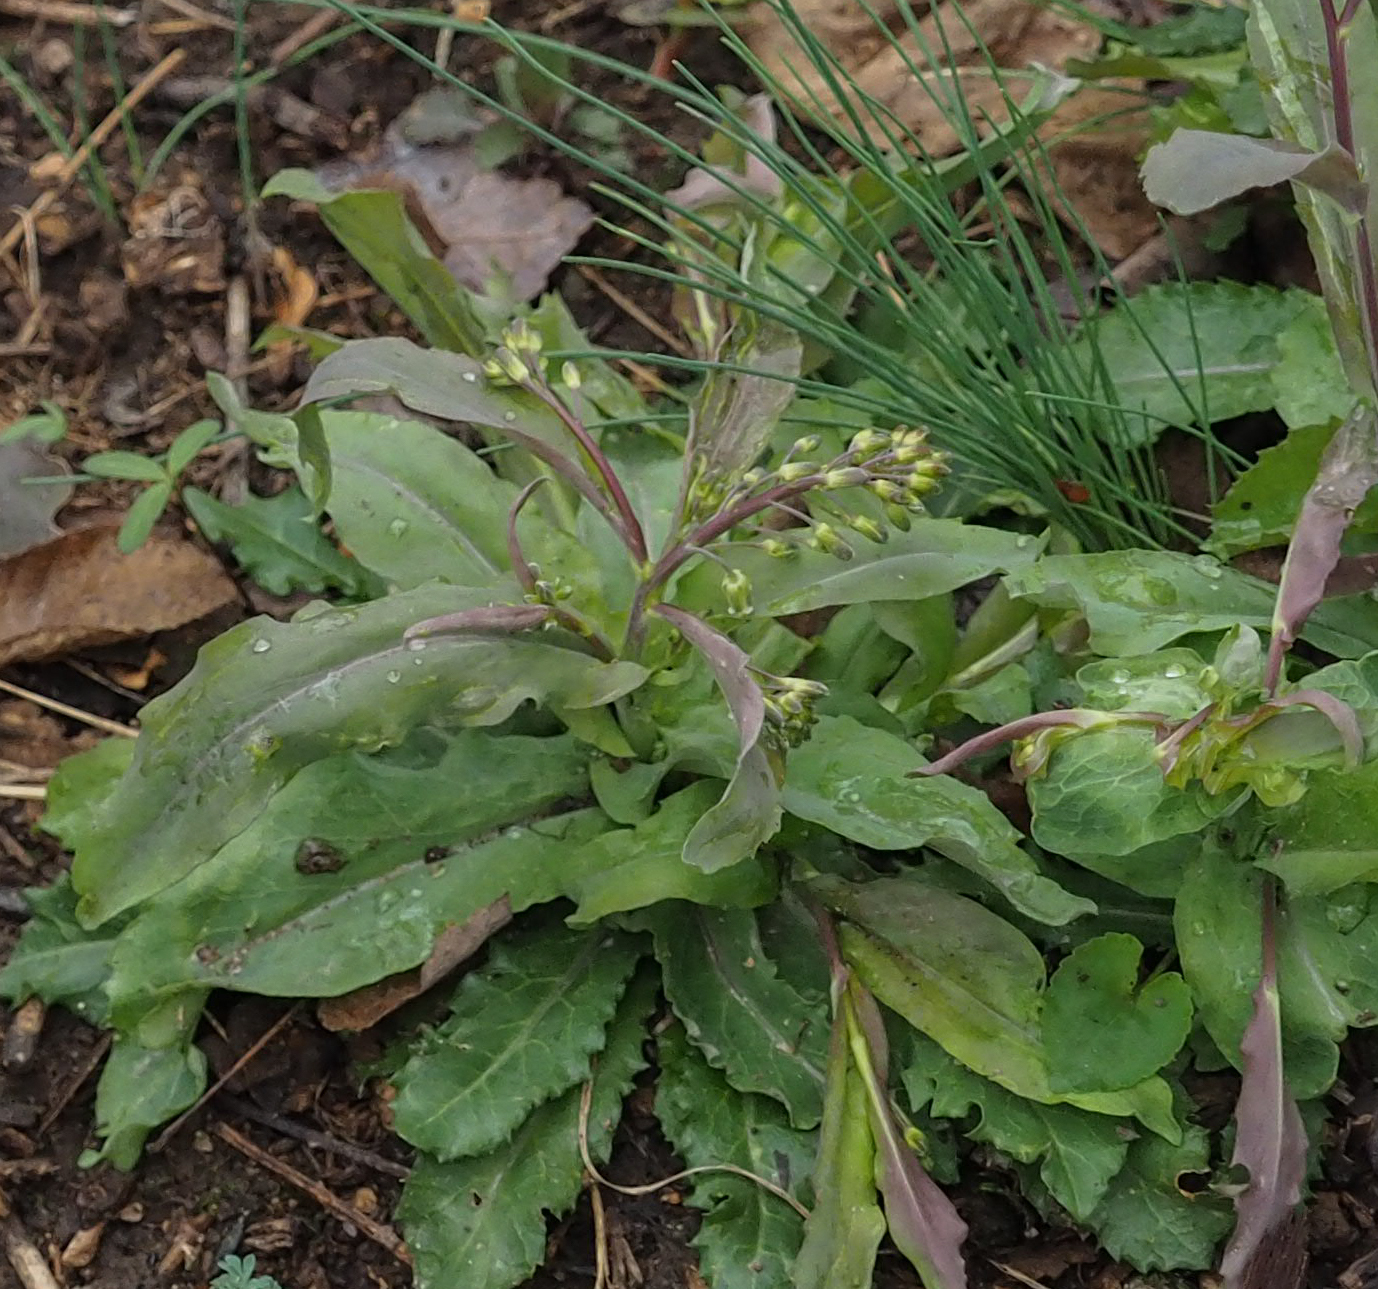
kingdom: Animalia
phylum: Chordata
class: Aves
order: Passeriformes
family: Cardinalidae
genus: Cardinalis
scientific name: Cardinalis cardinalis
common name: Northern cardinal
